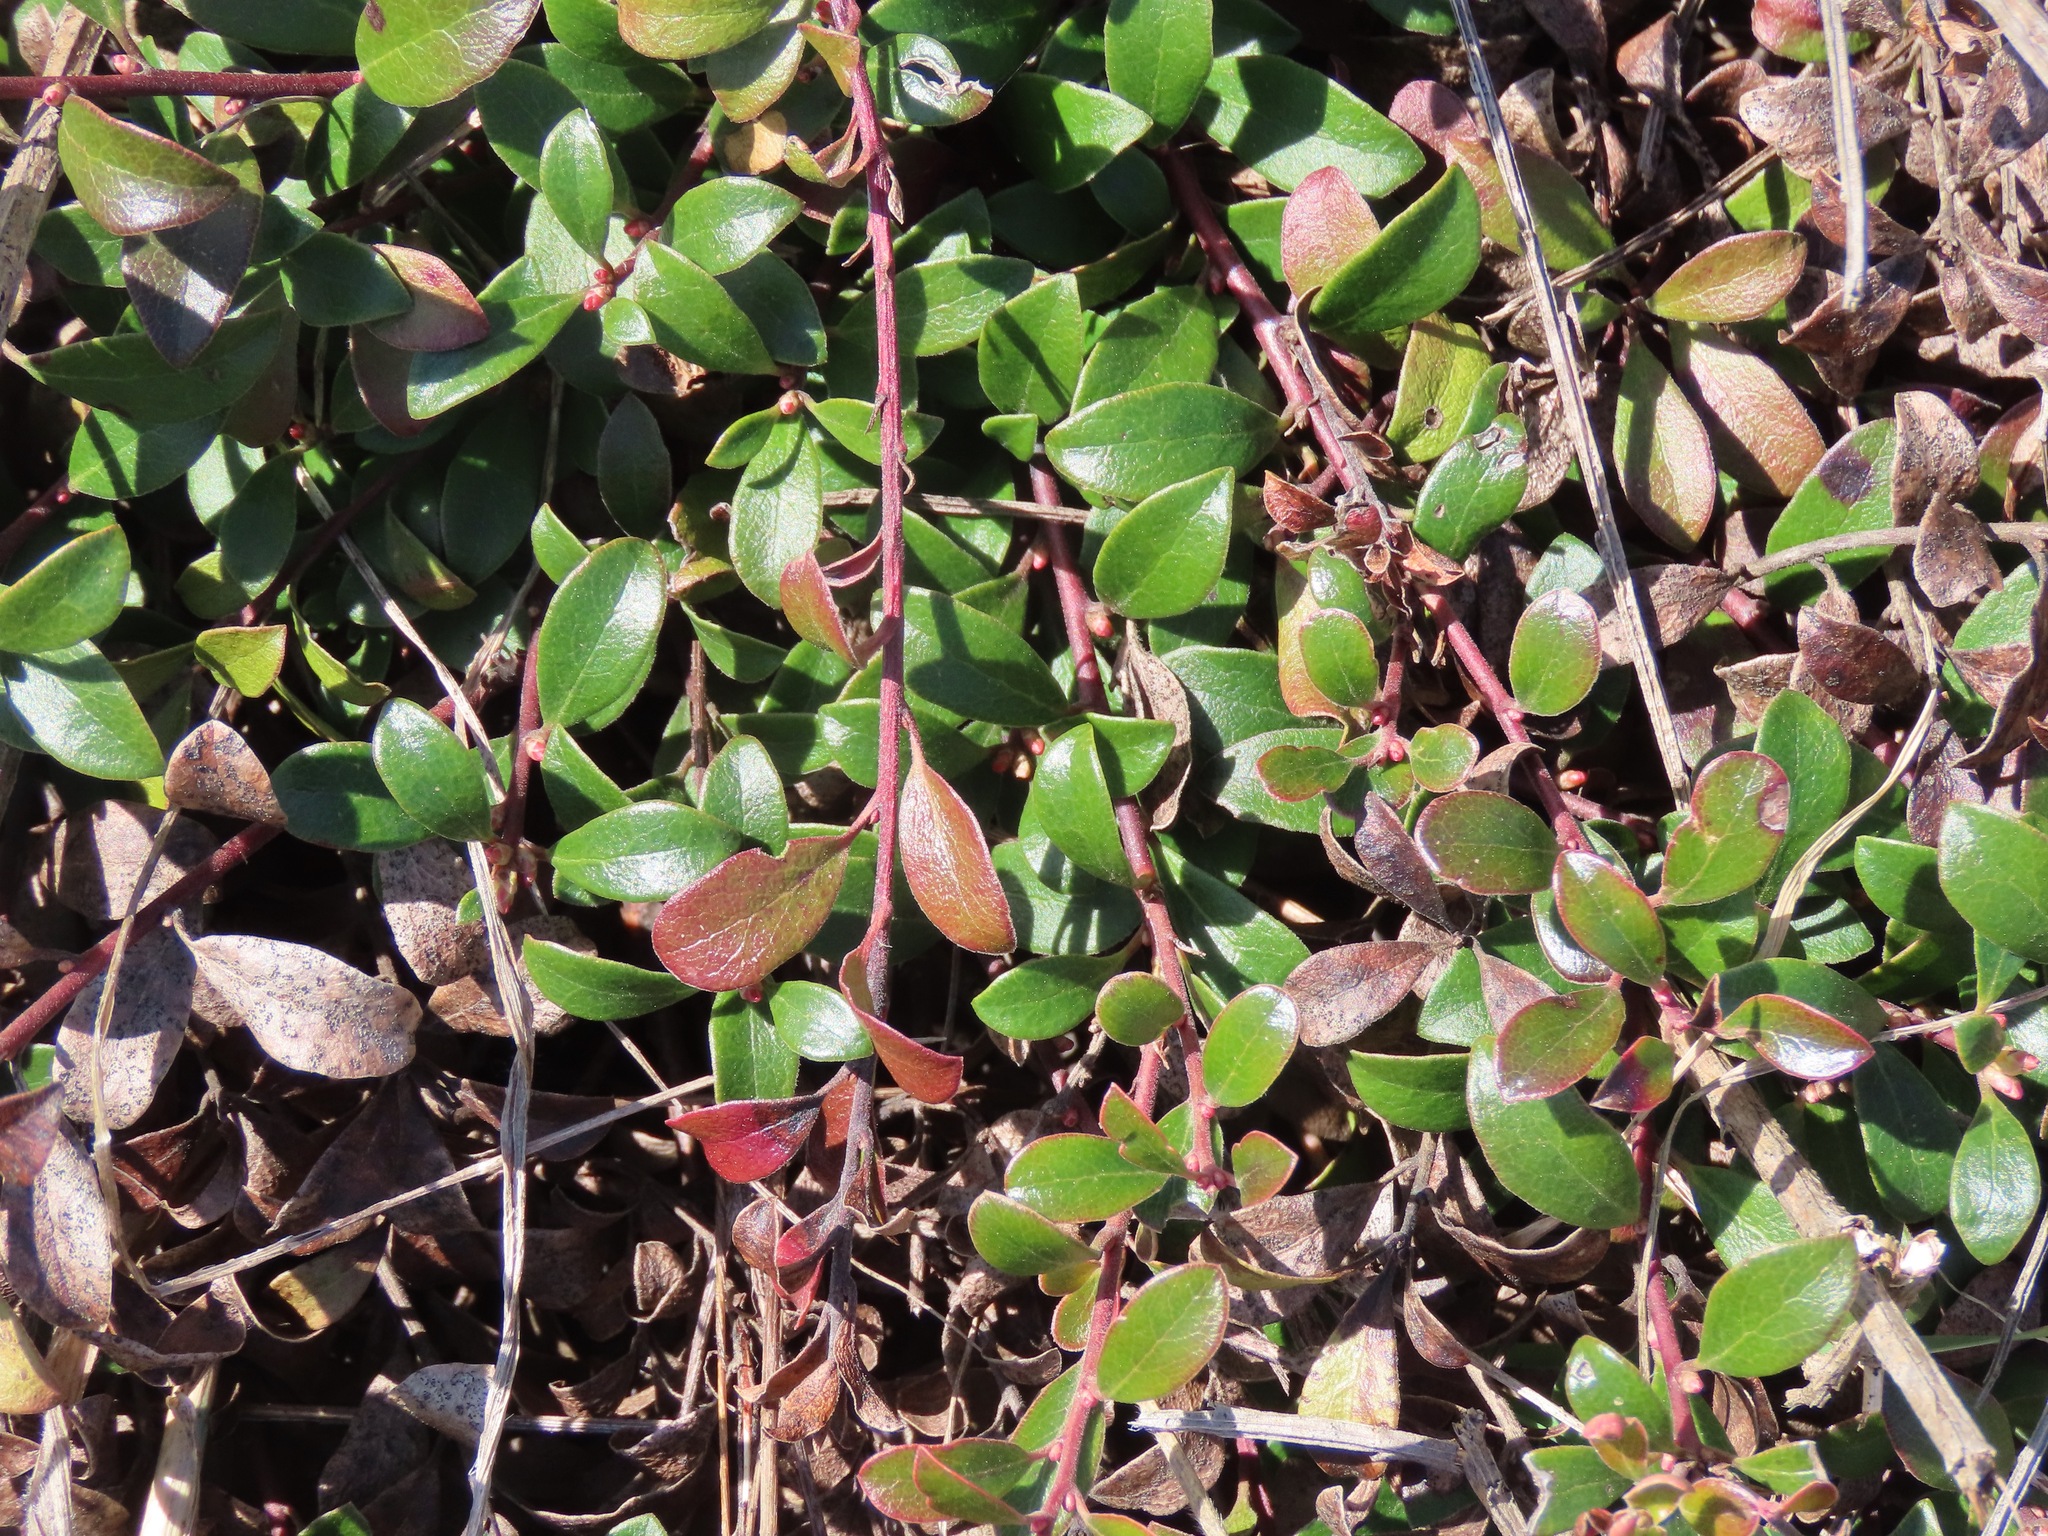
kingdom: Plantae
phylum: Tracheophyta
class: Magnoliopsida
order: Ericales
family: Ericaceae
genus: Arctostaphylos
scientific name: Arctostaphylos uva-ursi
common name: Bearberry
